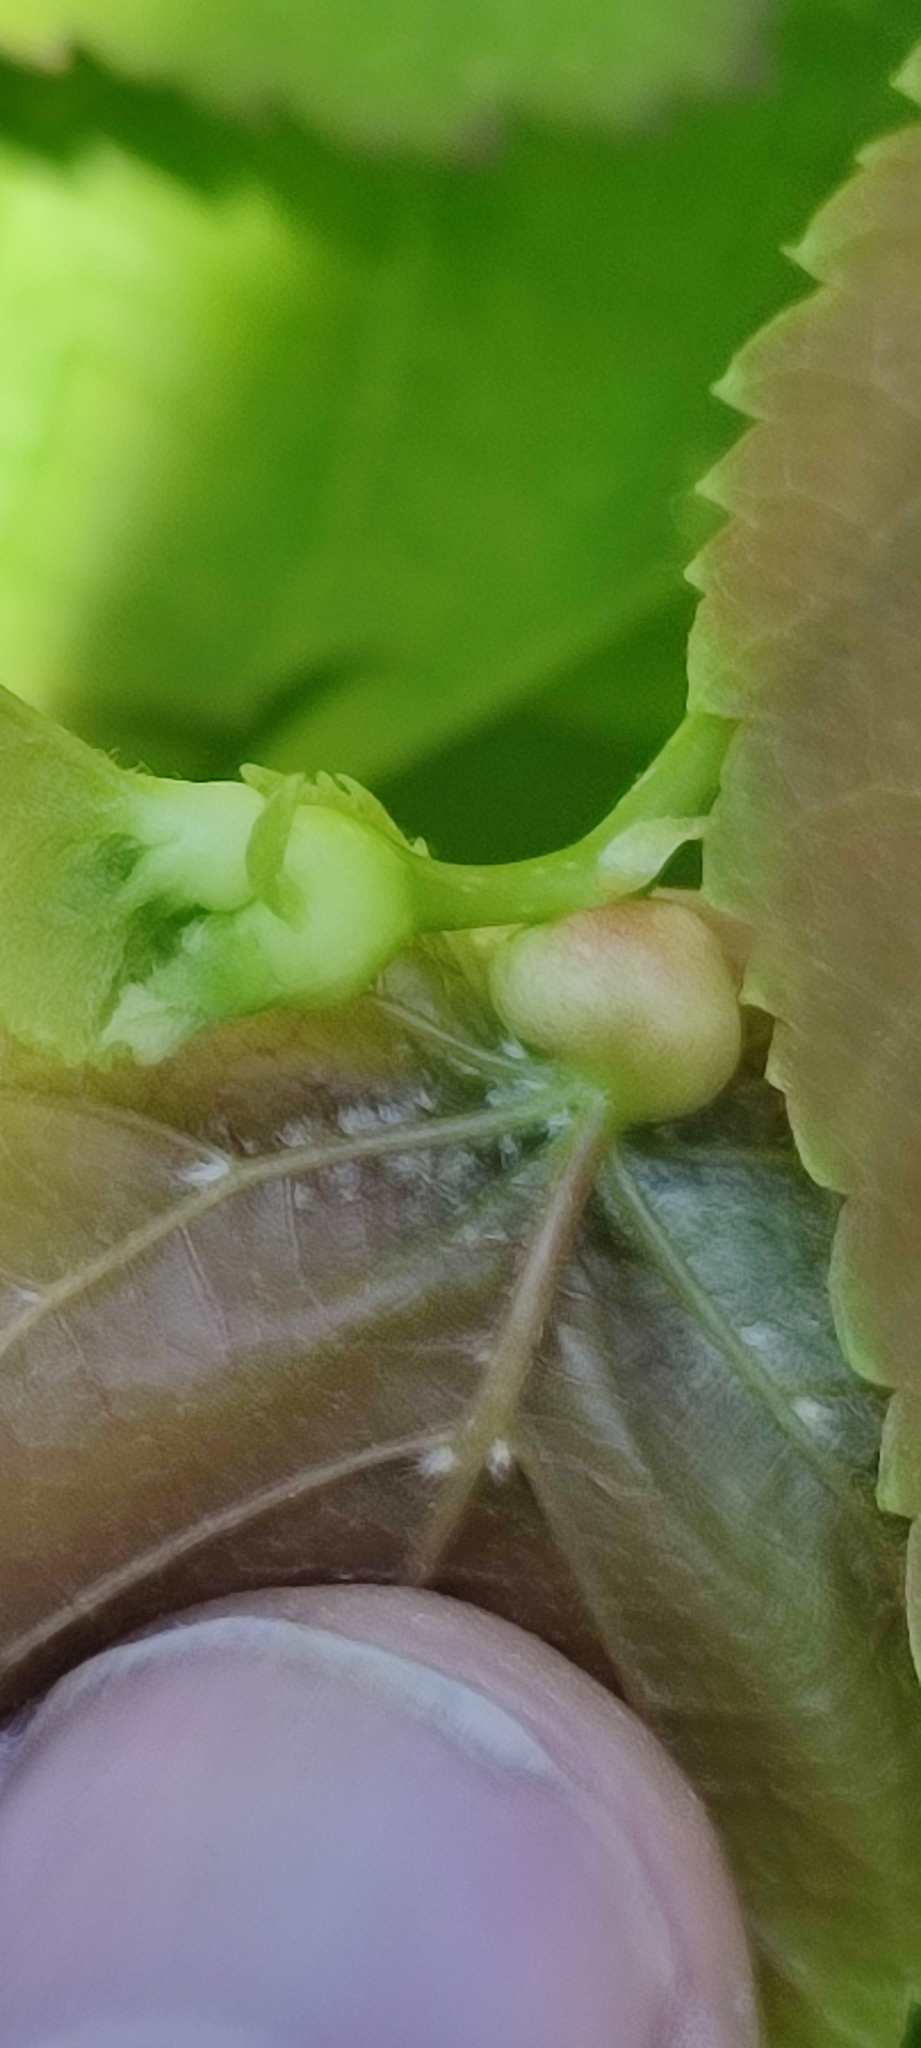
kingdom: Animalia
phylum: Arthropoda
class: Insecta
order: Diptera
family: Cecidomyiidae
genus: Contarinia
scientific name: Contarinia tiliarum
